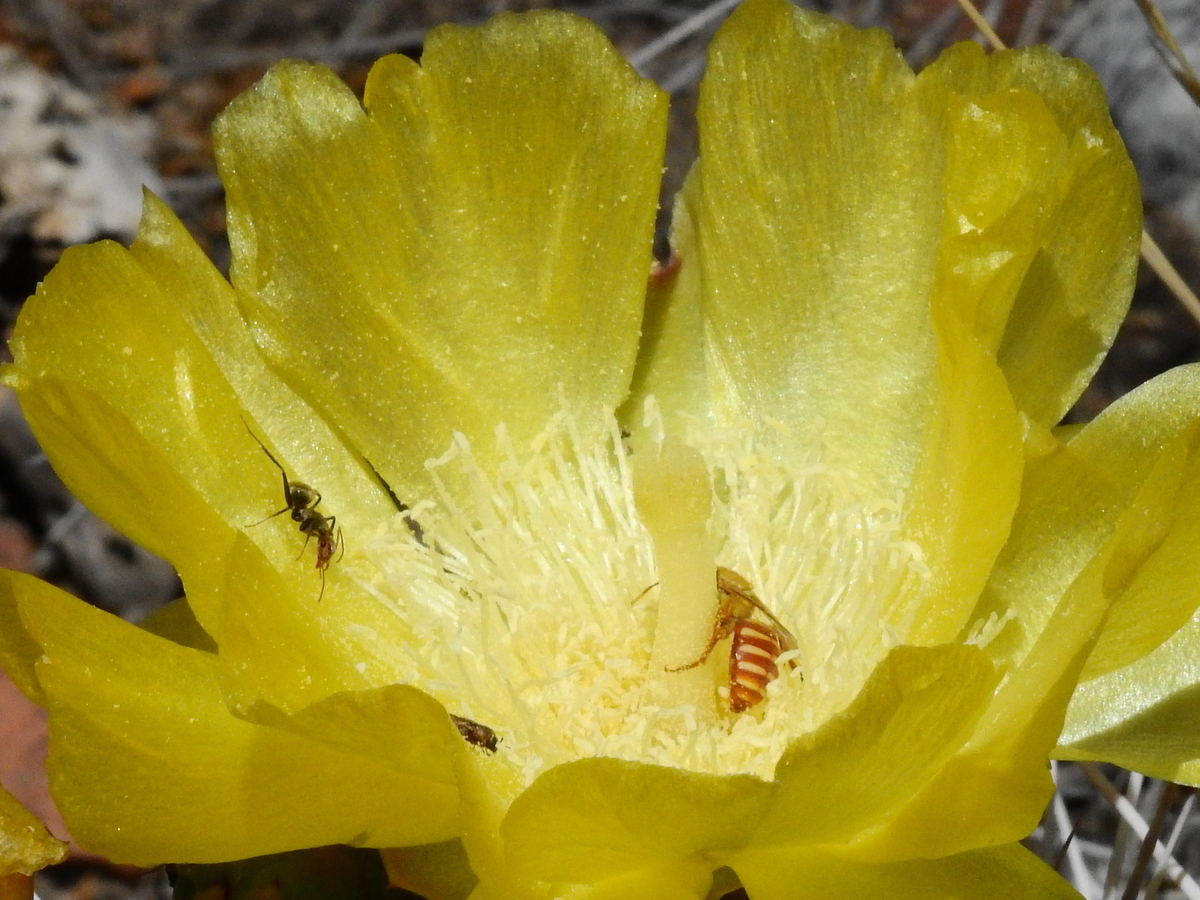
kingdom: Animalia
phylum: Arthropoda
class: Insecta
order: Hymenoptera
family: Andrenidae
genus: Arhysosage
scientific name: Arhysosage ochracea
